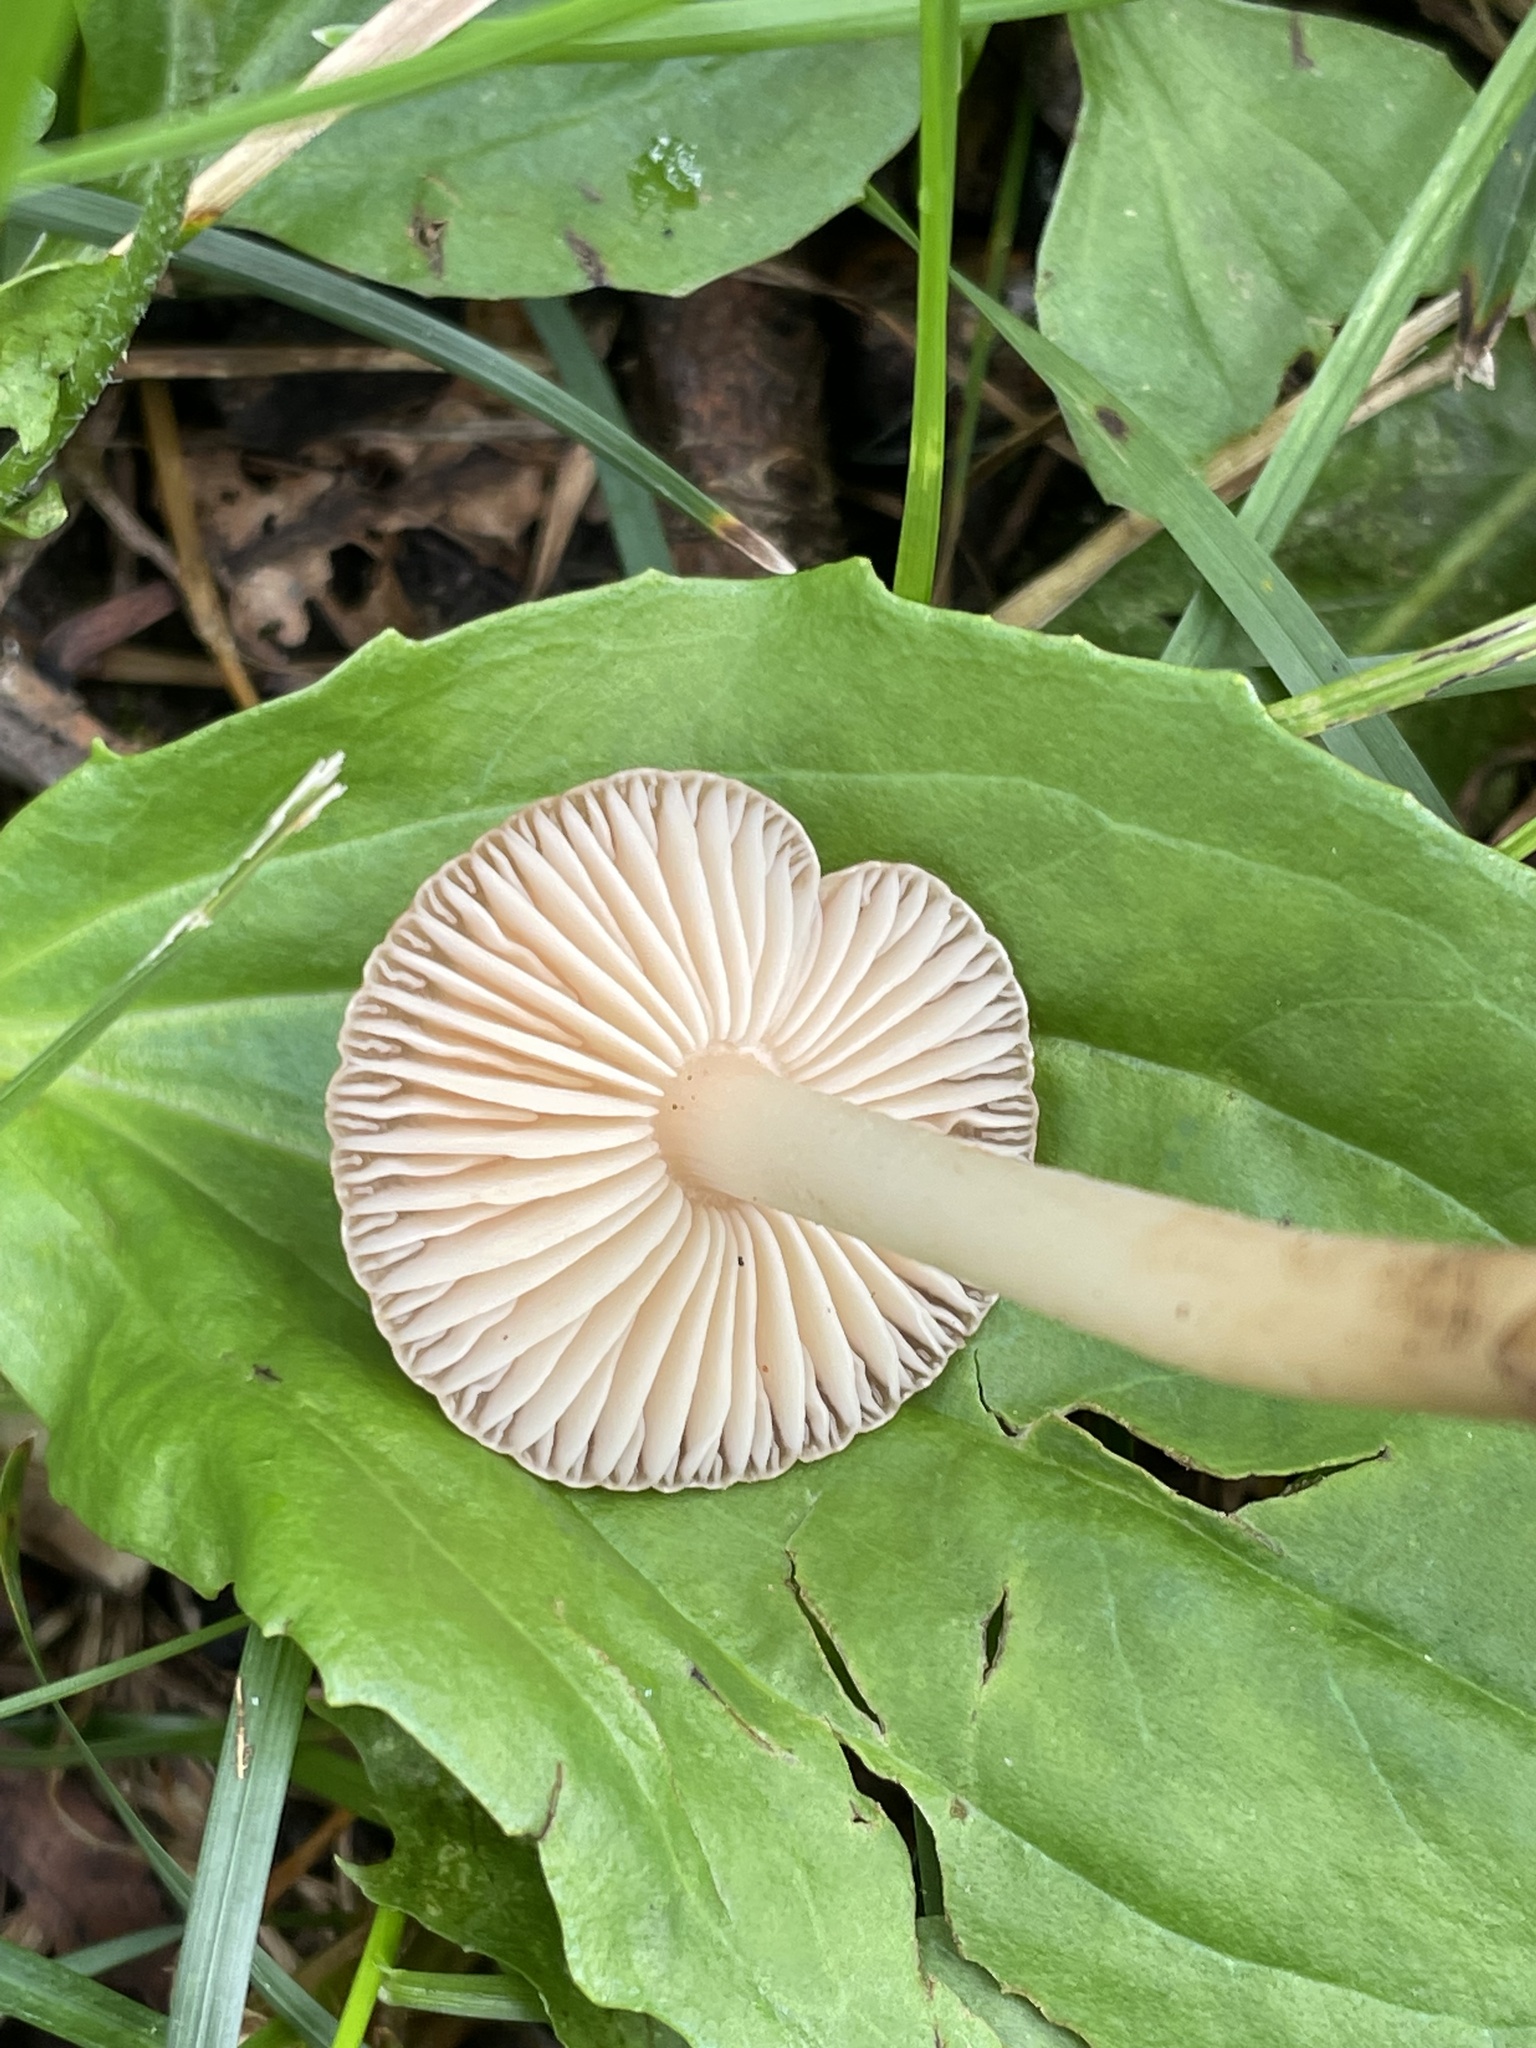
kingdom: Fungi
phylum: Basidiomycota
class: Agaricomycetes
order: Agaricales
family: Marasmiaceae
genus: Marasmius
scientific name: Marasmius oreades
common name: Fairy ring champignon
